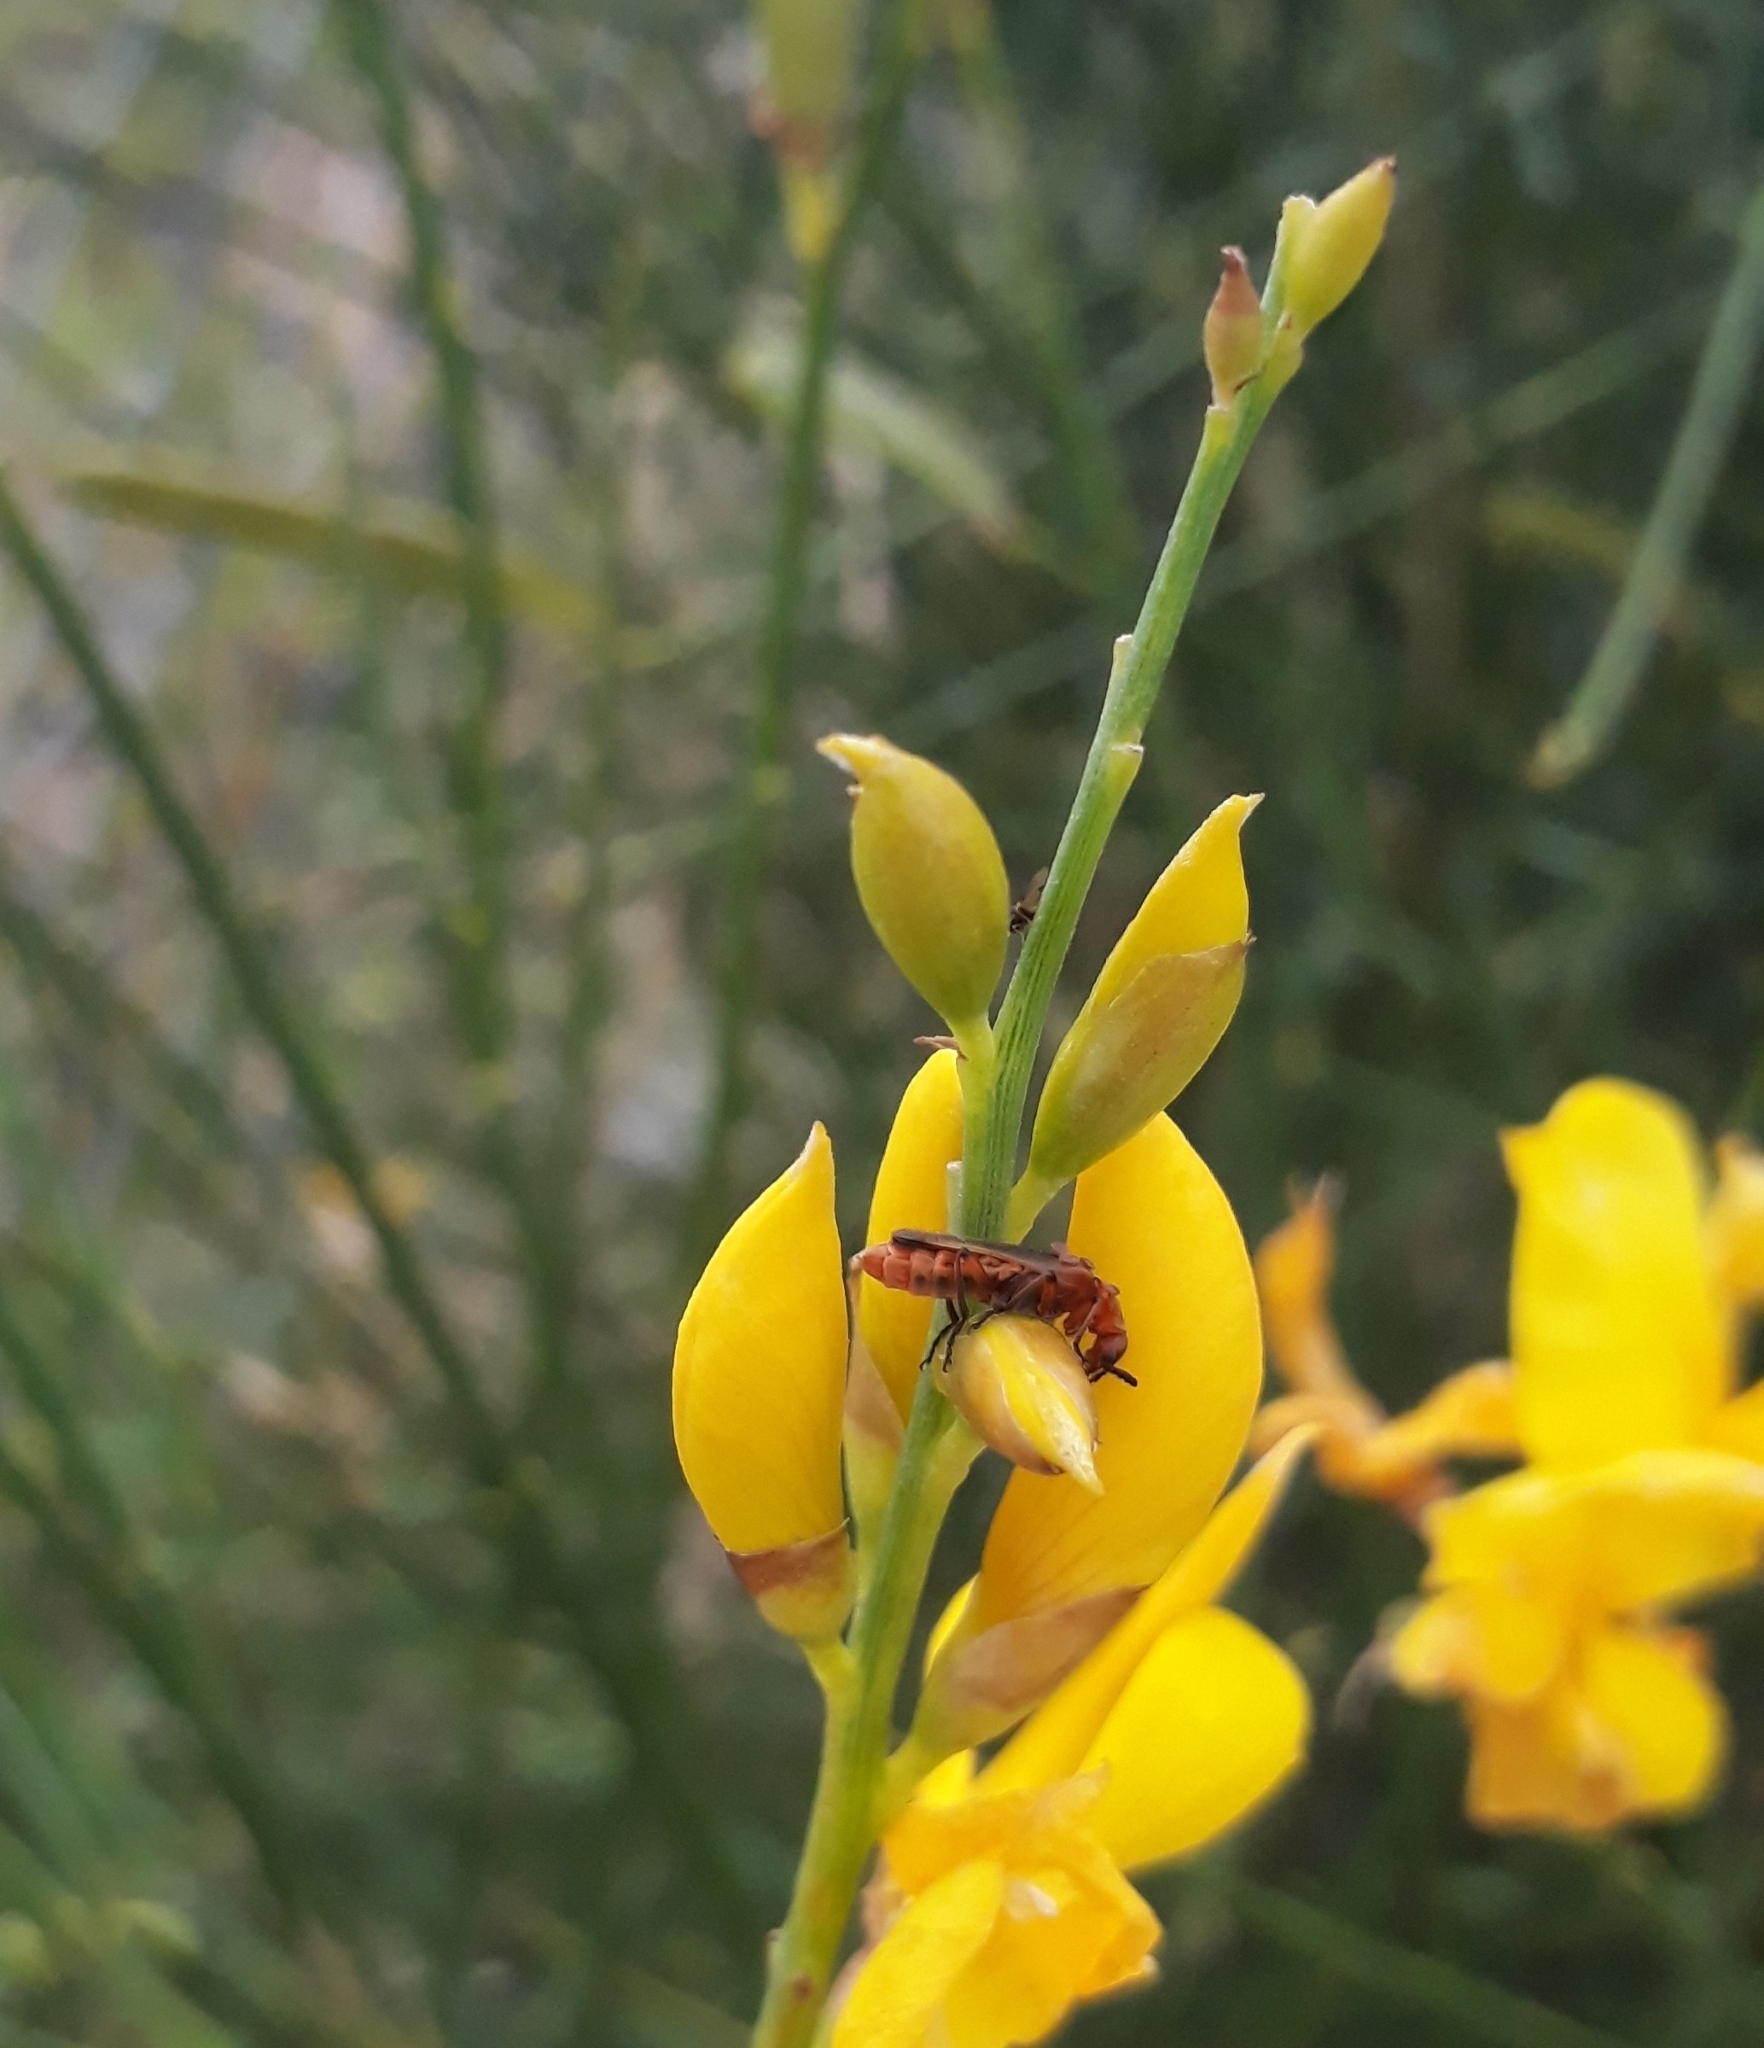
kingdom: Animalia
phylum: Arthropoda
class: Insecta
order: Coleoptera
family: Cantharidae
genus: Discodon
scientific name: Discodon
